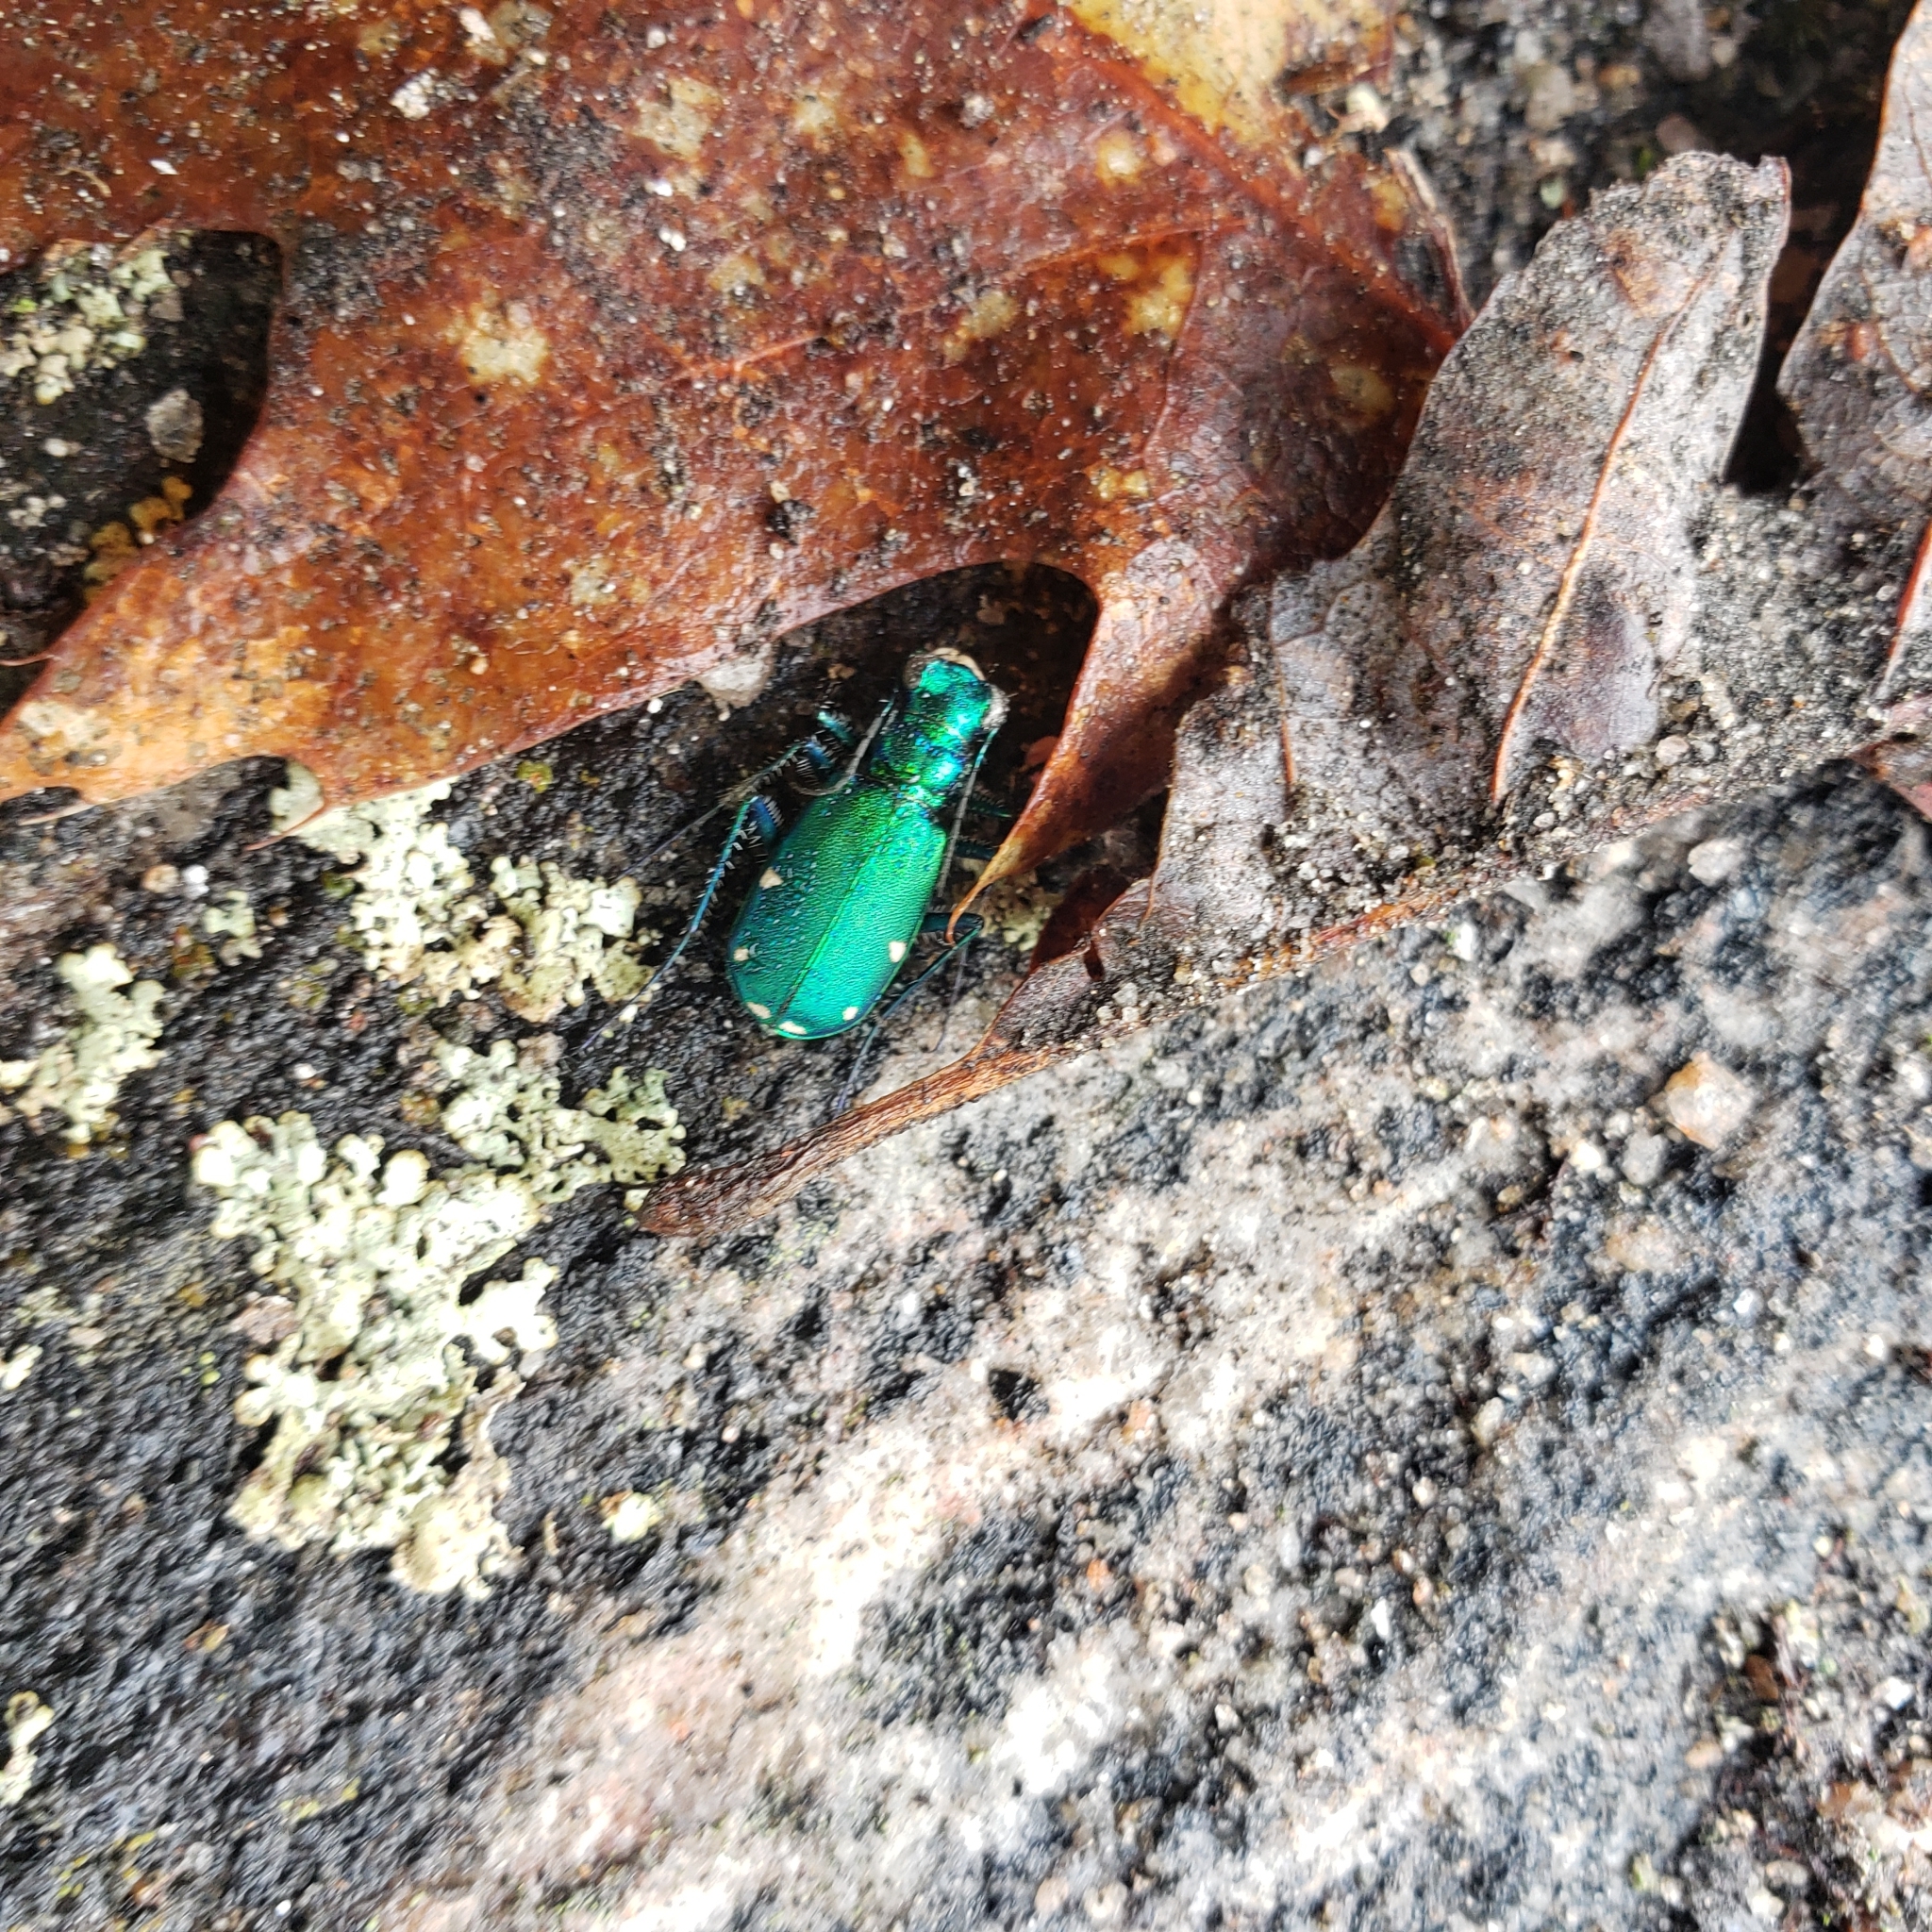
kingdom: Animalia
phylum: Arthropoda
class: Insecta
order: Coleoptera
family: Carabidae
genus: Cicindela
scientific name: Cicindela sexguttata
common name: Six-spotted tiger beetle
